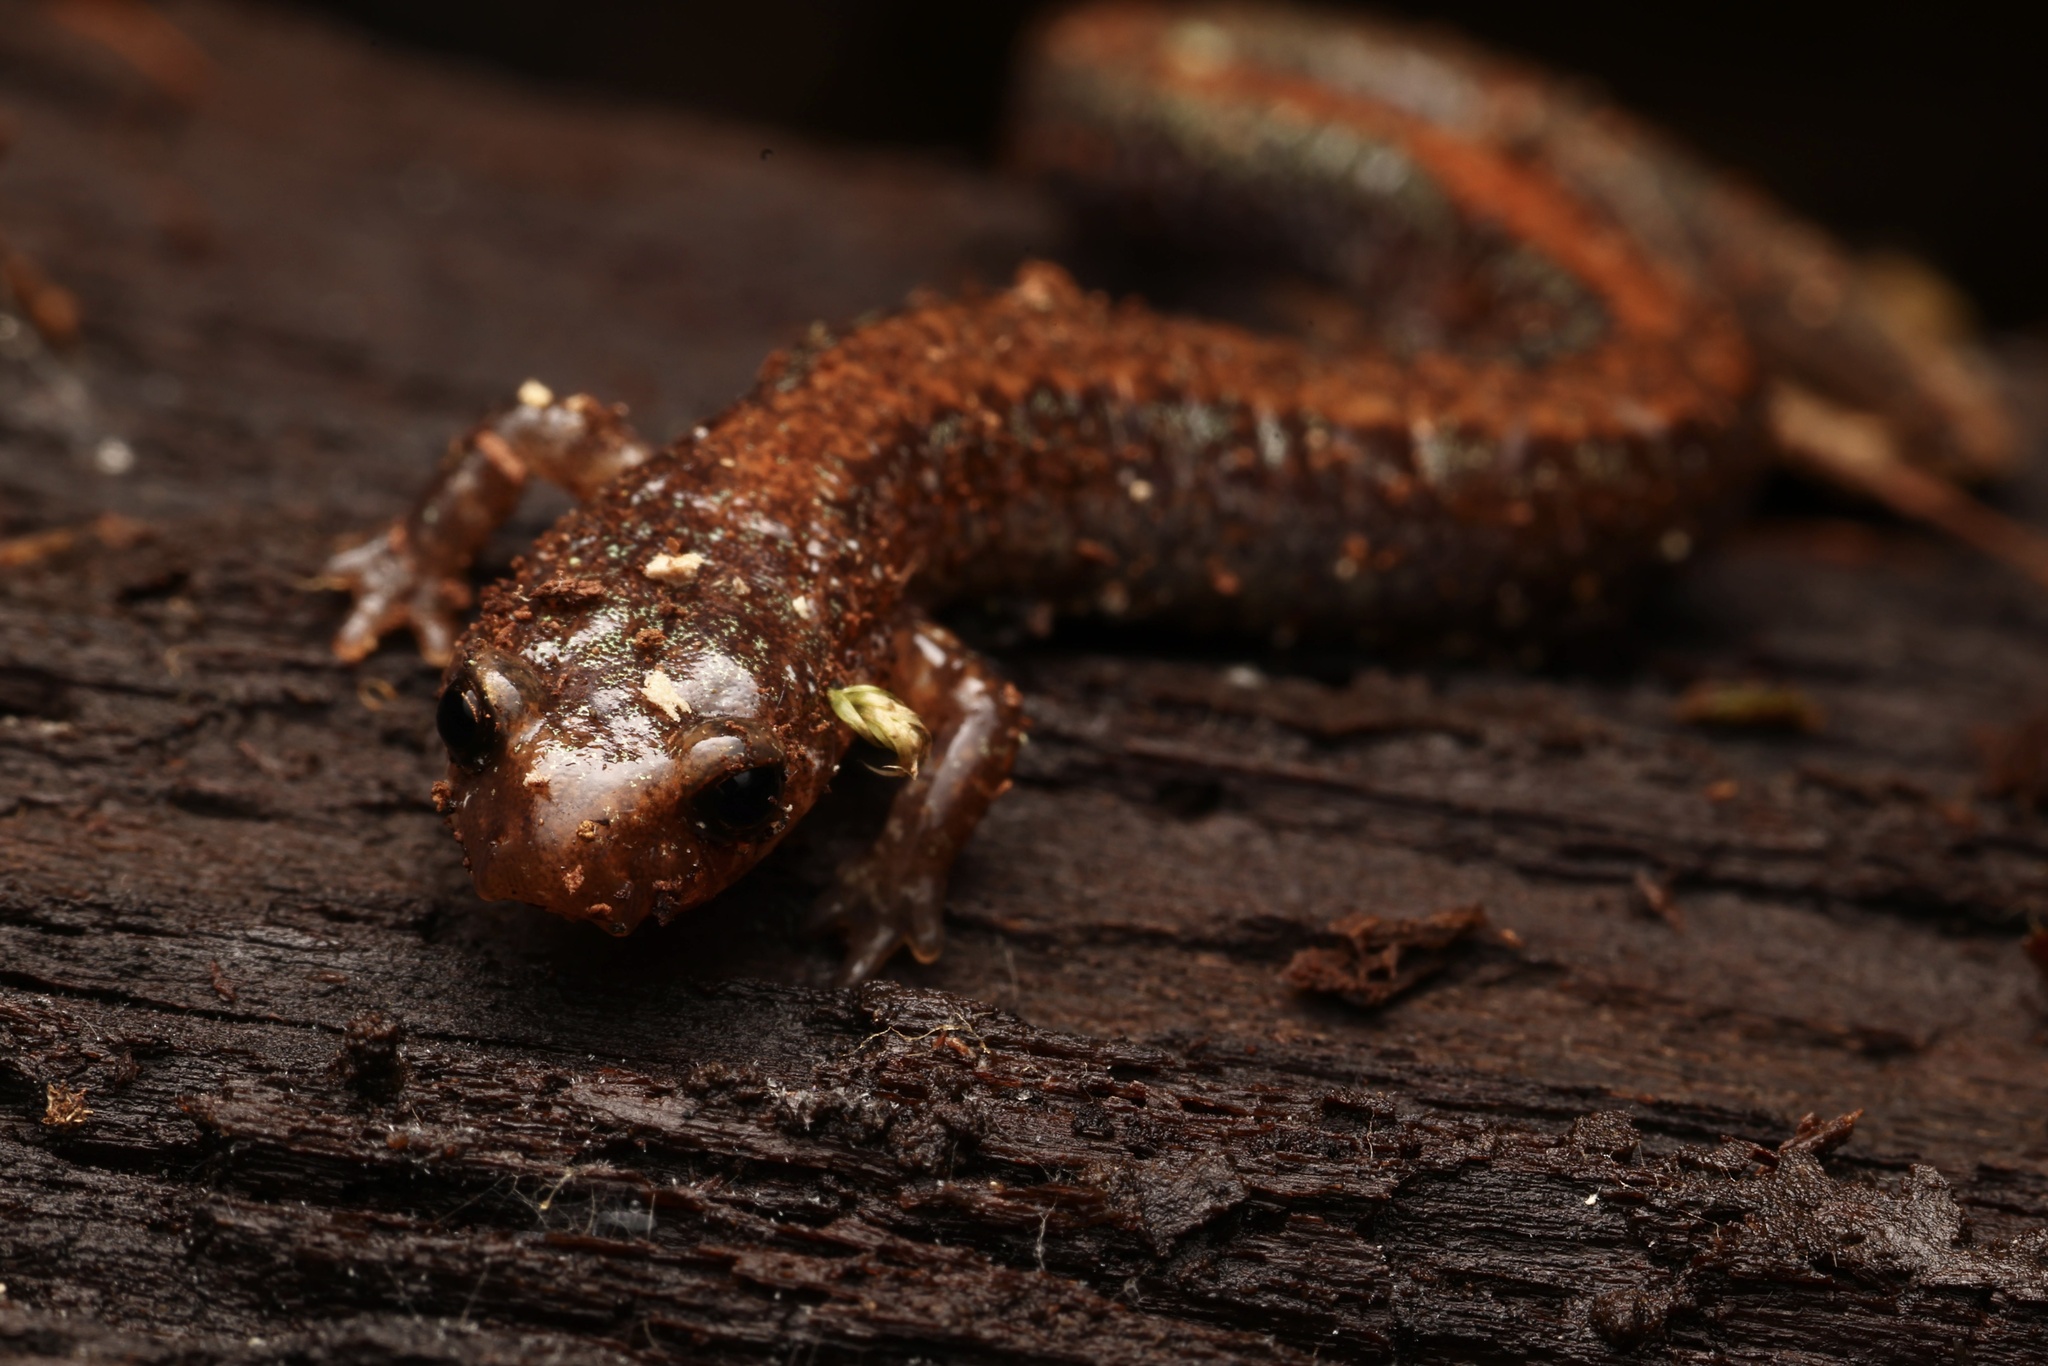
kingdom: Animalia
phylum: Chordata
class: Amphibia
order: Caudata
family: Plethodontidae
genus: Plethodon
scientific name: Plethodon cinereus
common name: Redback salamander
